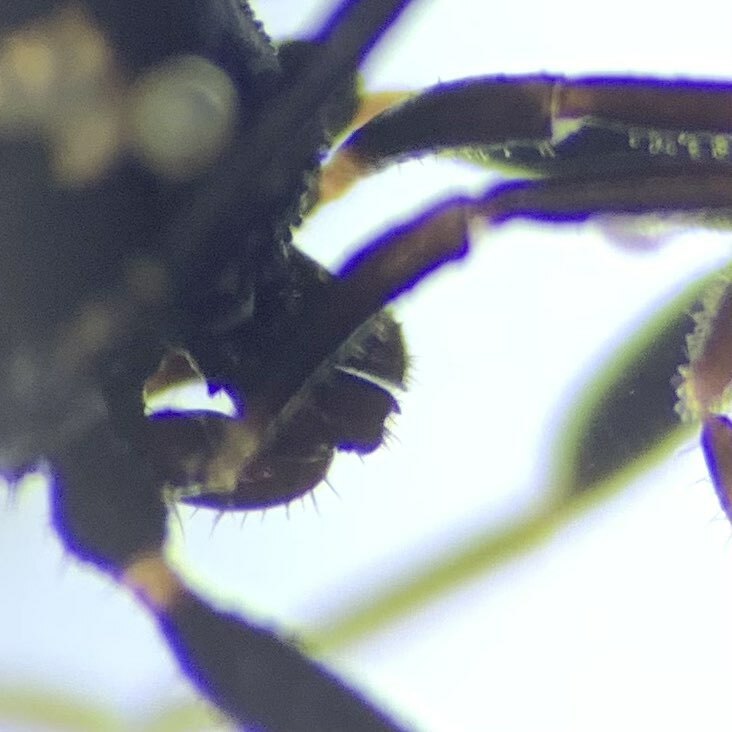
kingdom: Animalia
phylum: Arthropoda
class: Arachnida
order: Opiliones
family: Nemastomatidae
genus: Nemastoma
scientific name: Nemastoma bimaculatum
